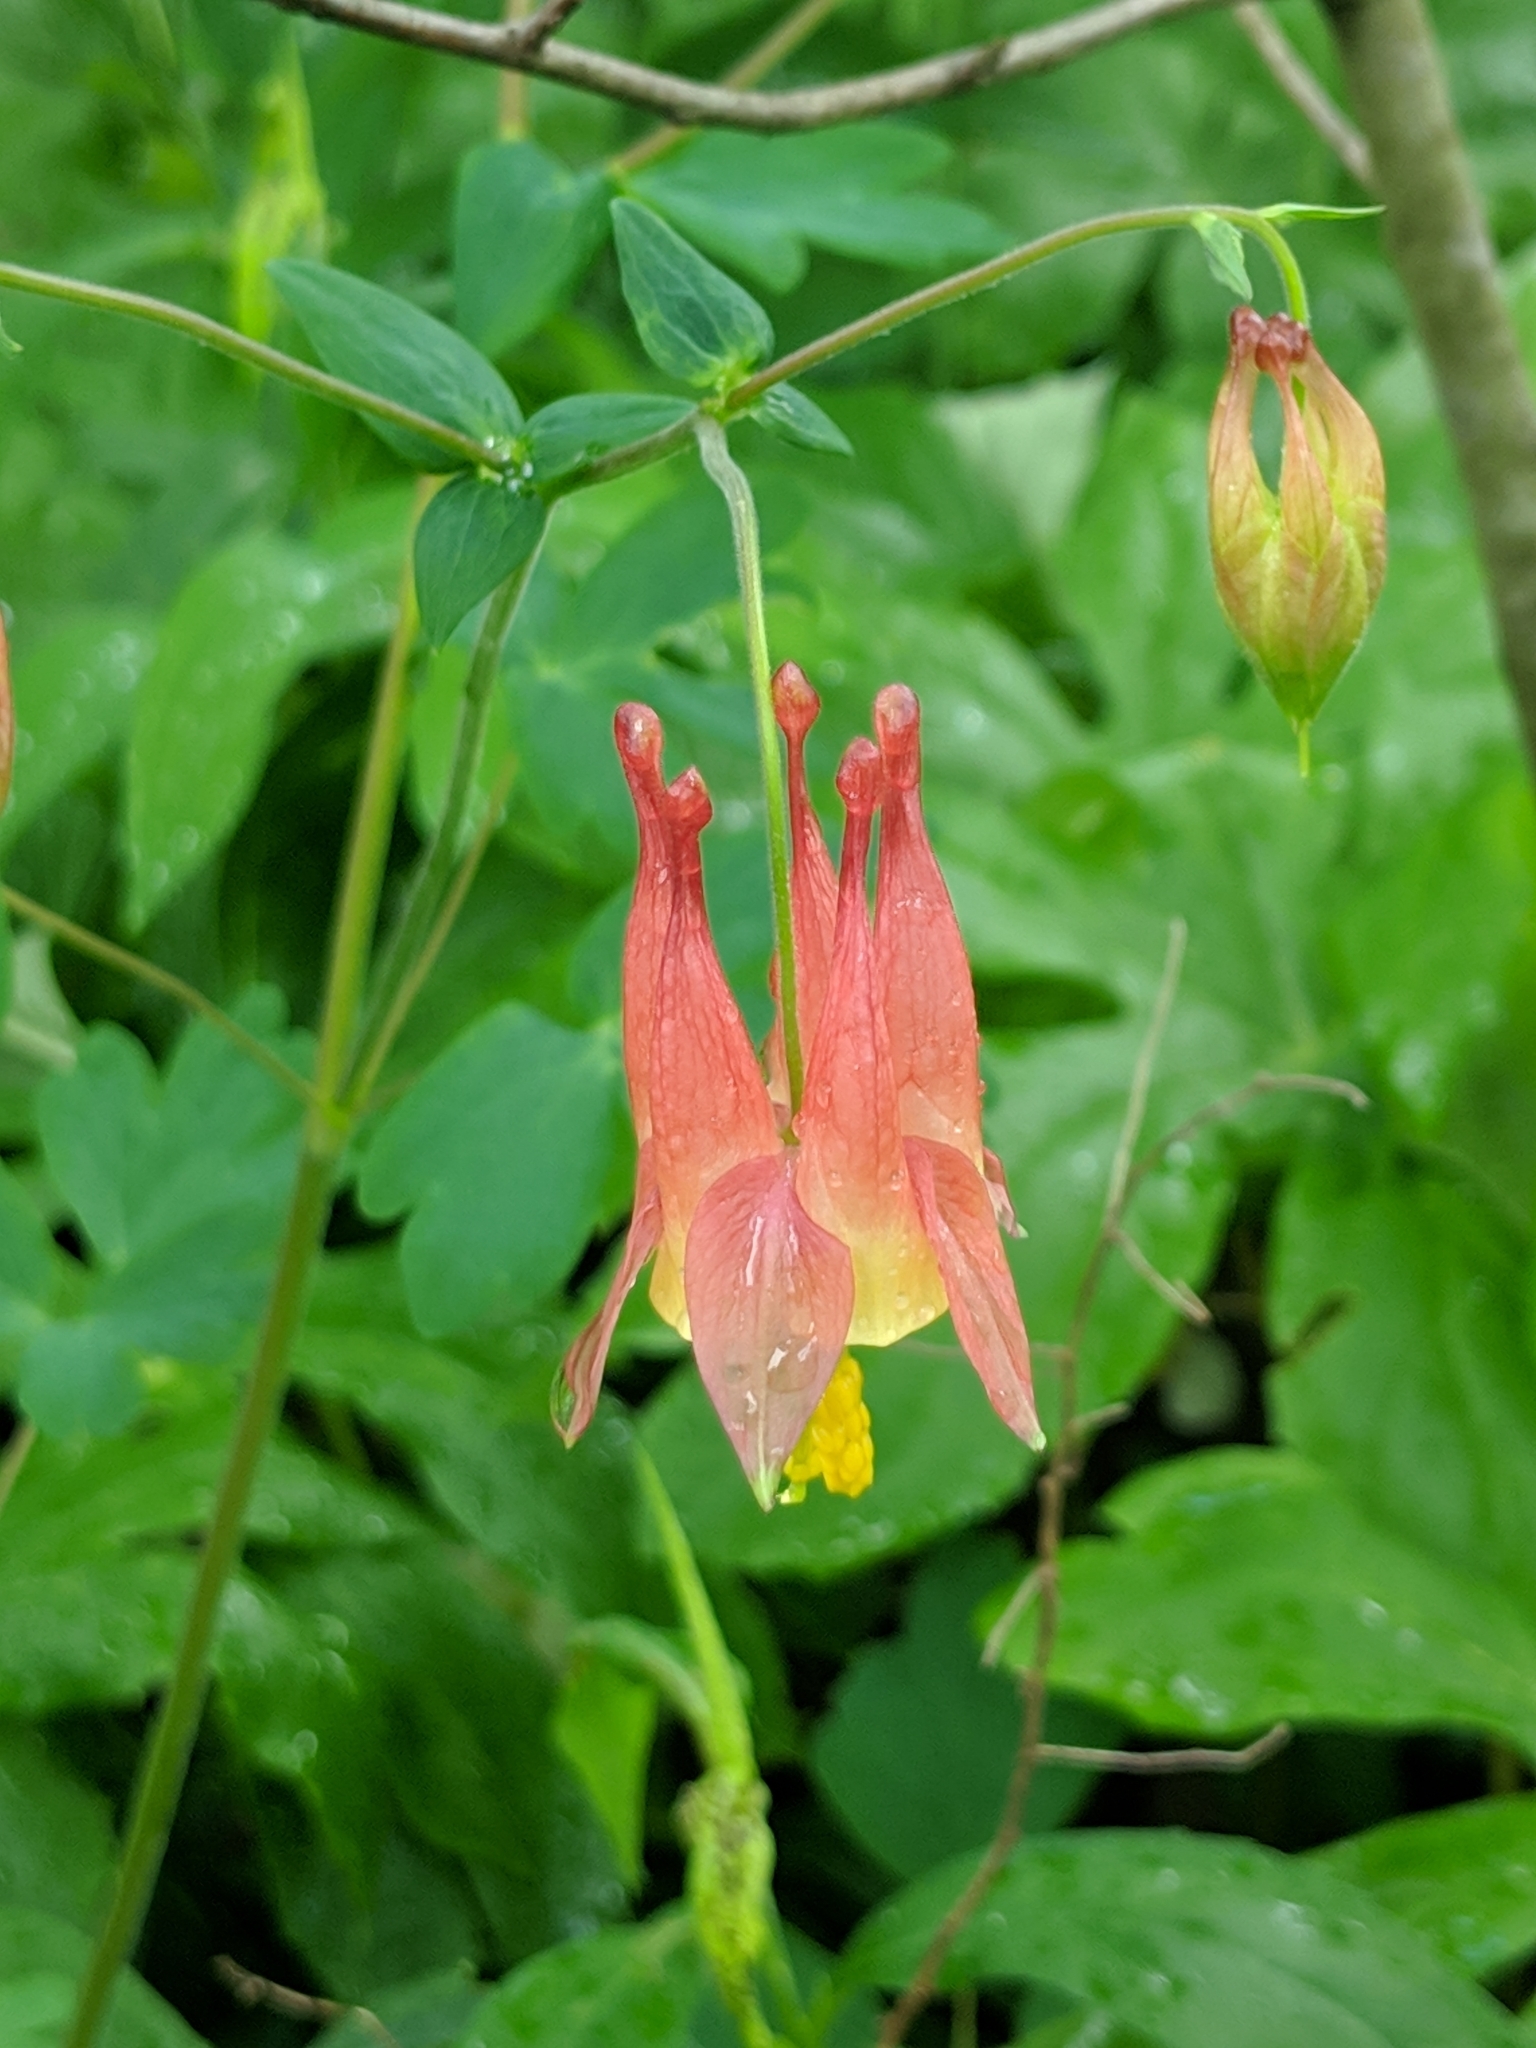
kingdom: Plantae
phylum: Tracheophyta
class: Magnoliopsida
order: Ranunculales
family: Ranunculaceae
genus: Aquilegia
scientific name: Aquilegia canadensis
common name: American columbine
